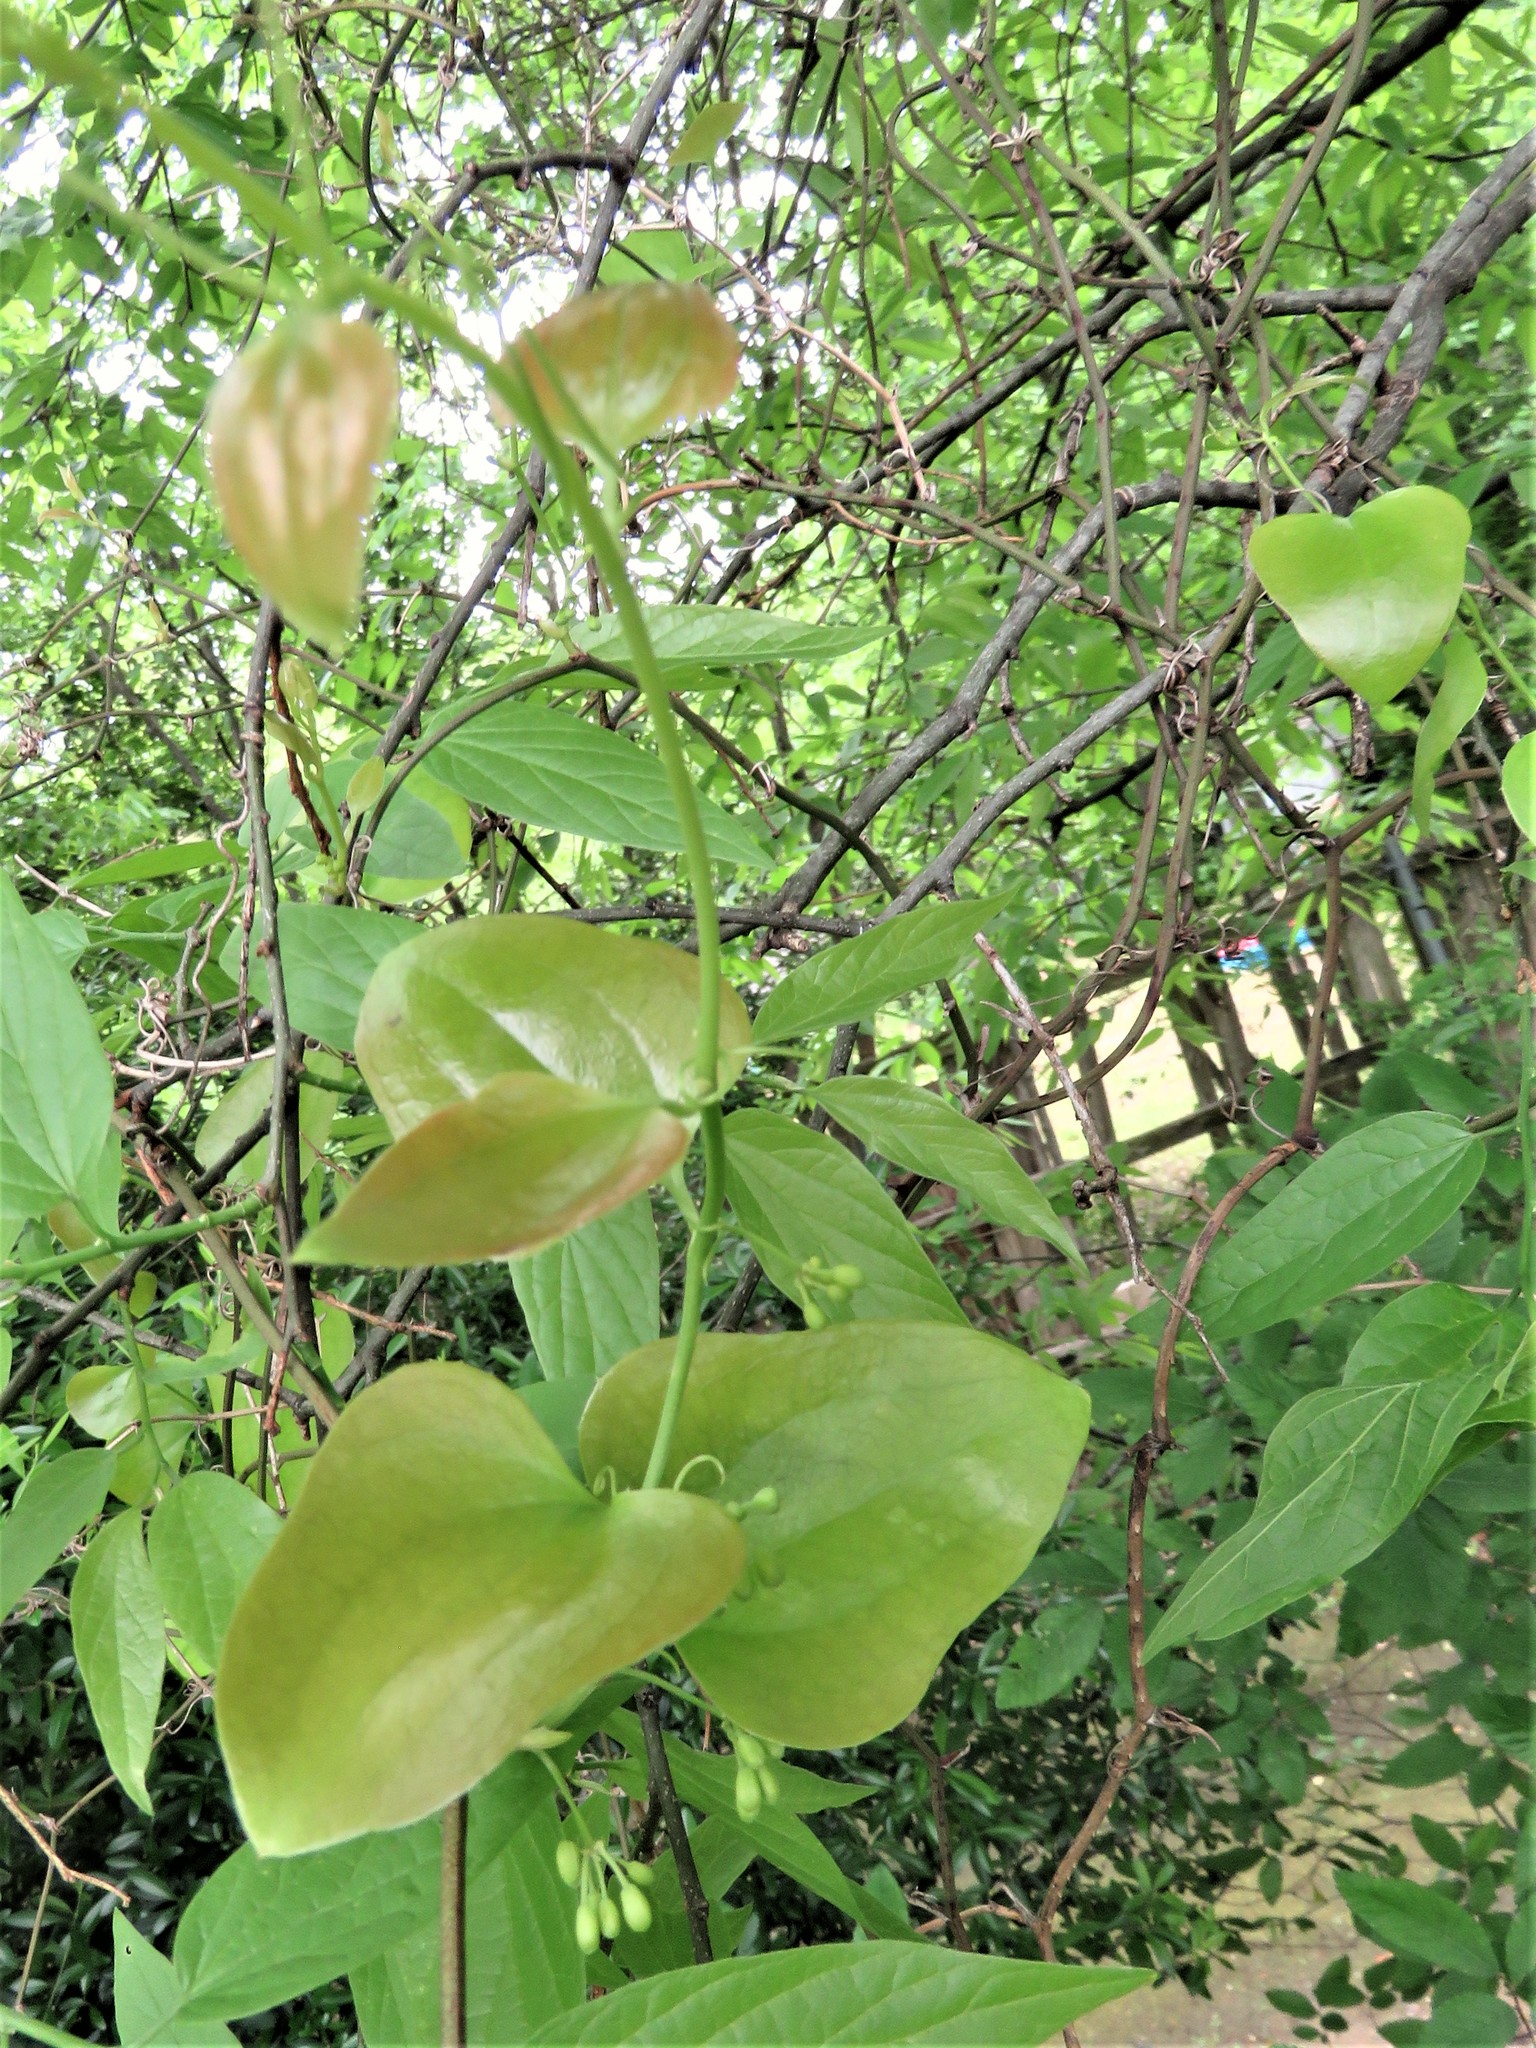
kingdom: Plantae
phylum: Tracheophyta
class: Liliopsida
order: Liliales
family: Smilacaceae
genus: Smilax
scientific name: Smilax bona-nox
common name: Catbrier
